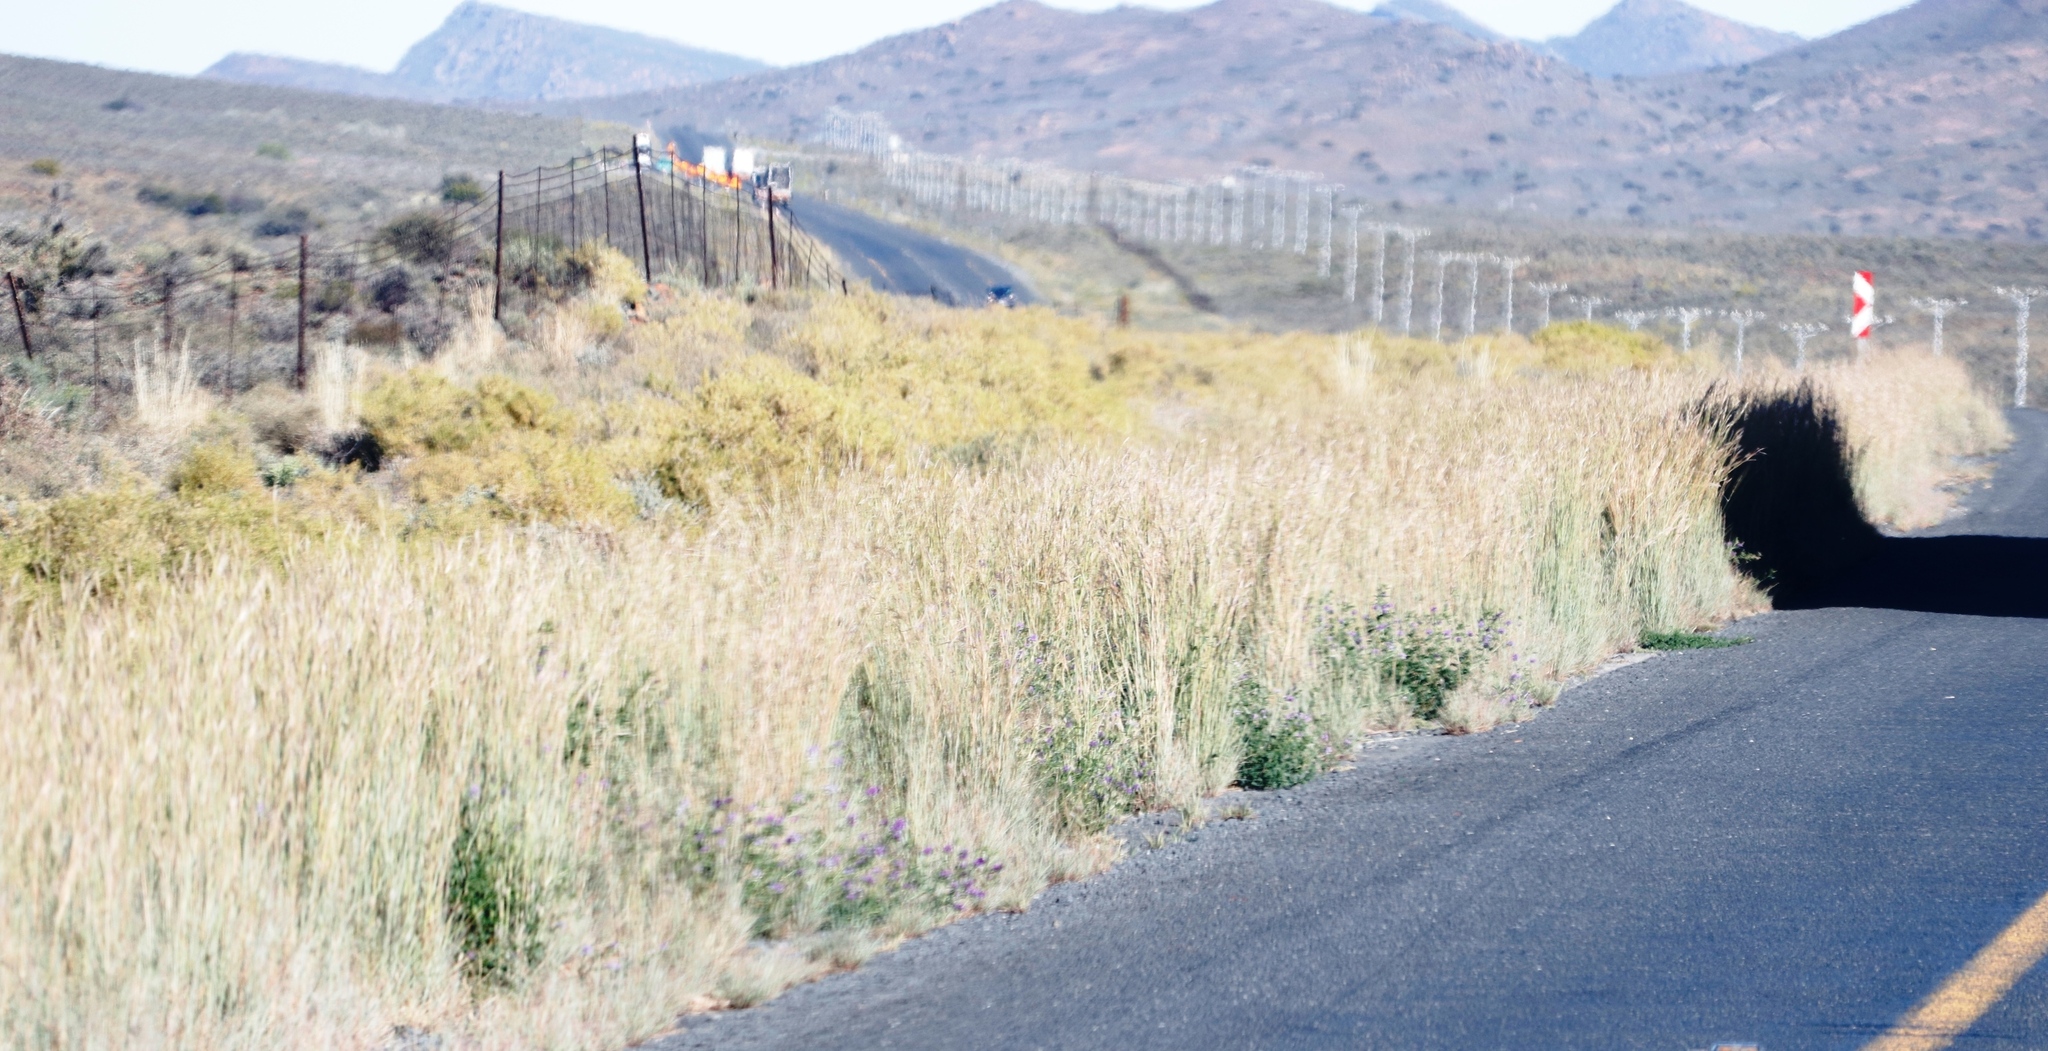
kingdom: Plantae
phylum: Tracheophyta
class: Magnoliopsida
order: Caryophyllales
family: Aizoaceae
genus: Aizoon
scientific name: Aizoon africanum
